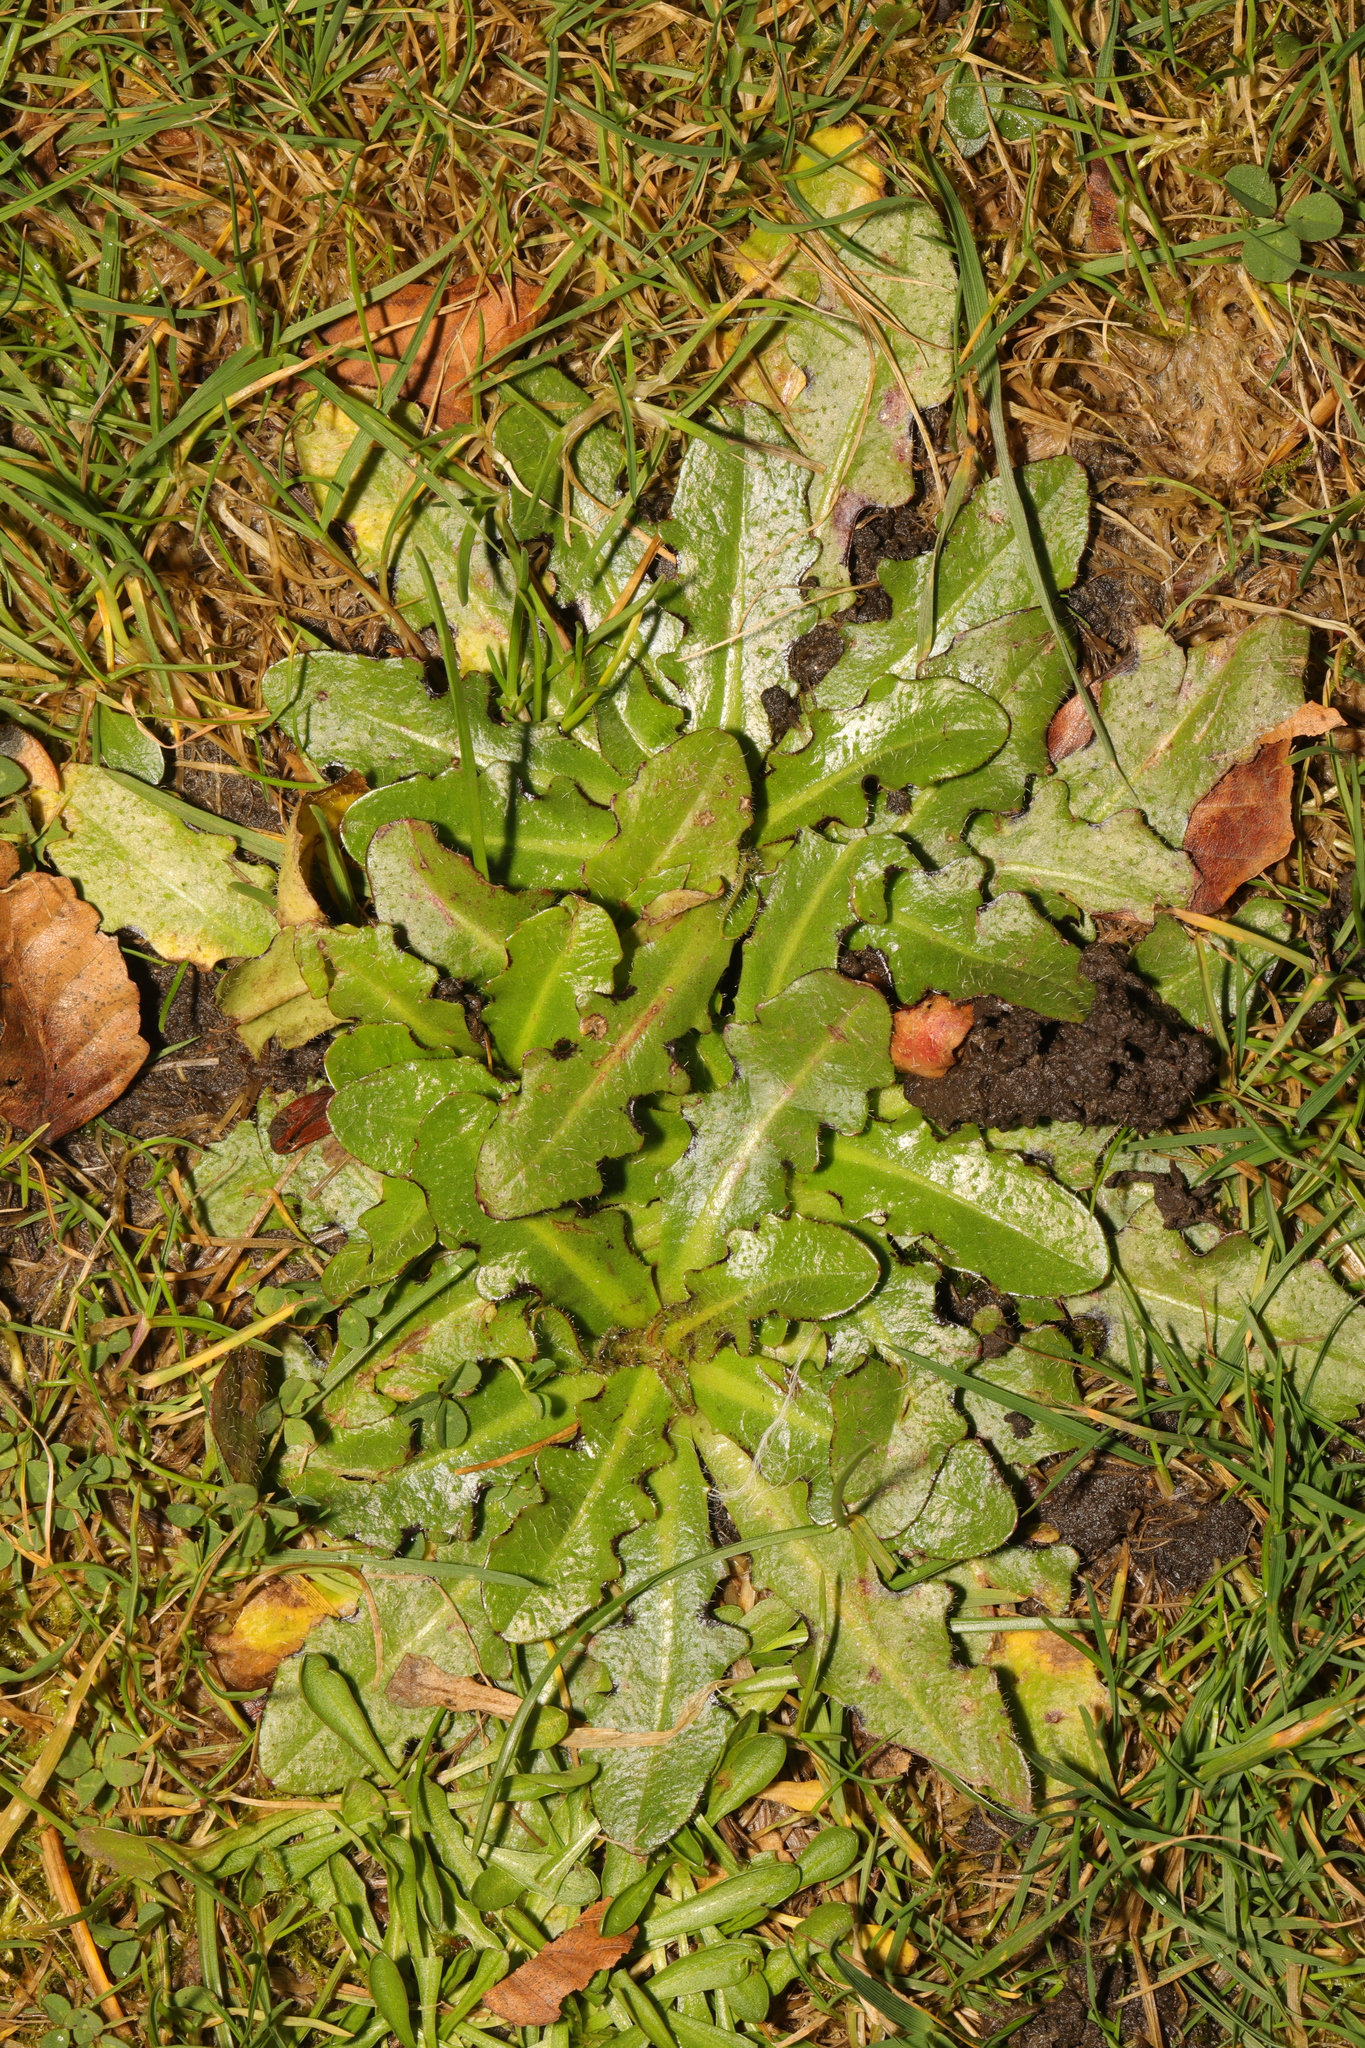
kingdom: Plantae
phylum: Tracheophyta
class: Magnoliopsida
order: Asterales
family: Asteraceae
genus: Hypochaeris
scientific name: Hypochaeris radicata
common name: Flatweed
